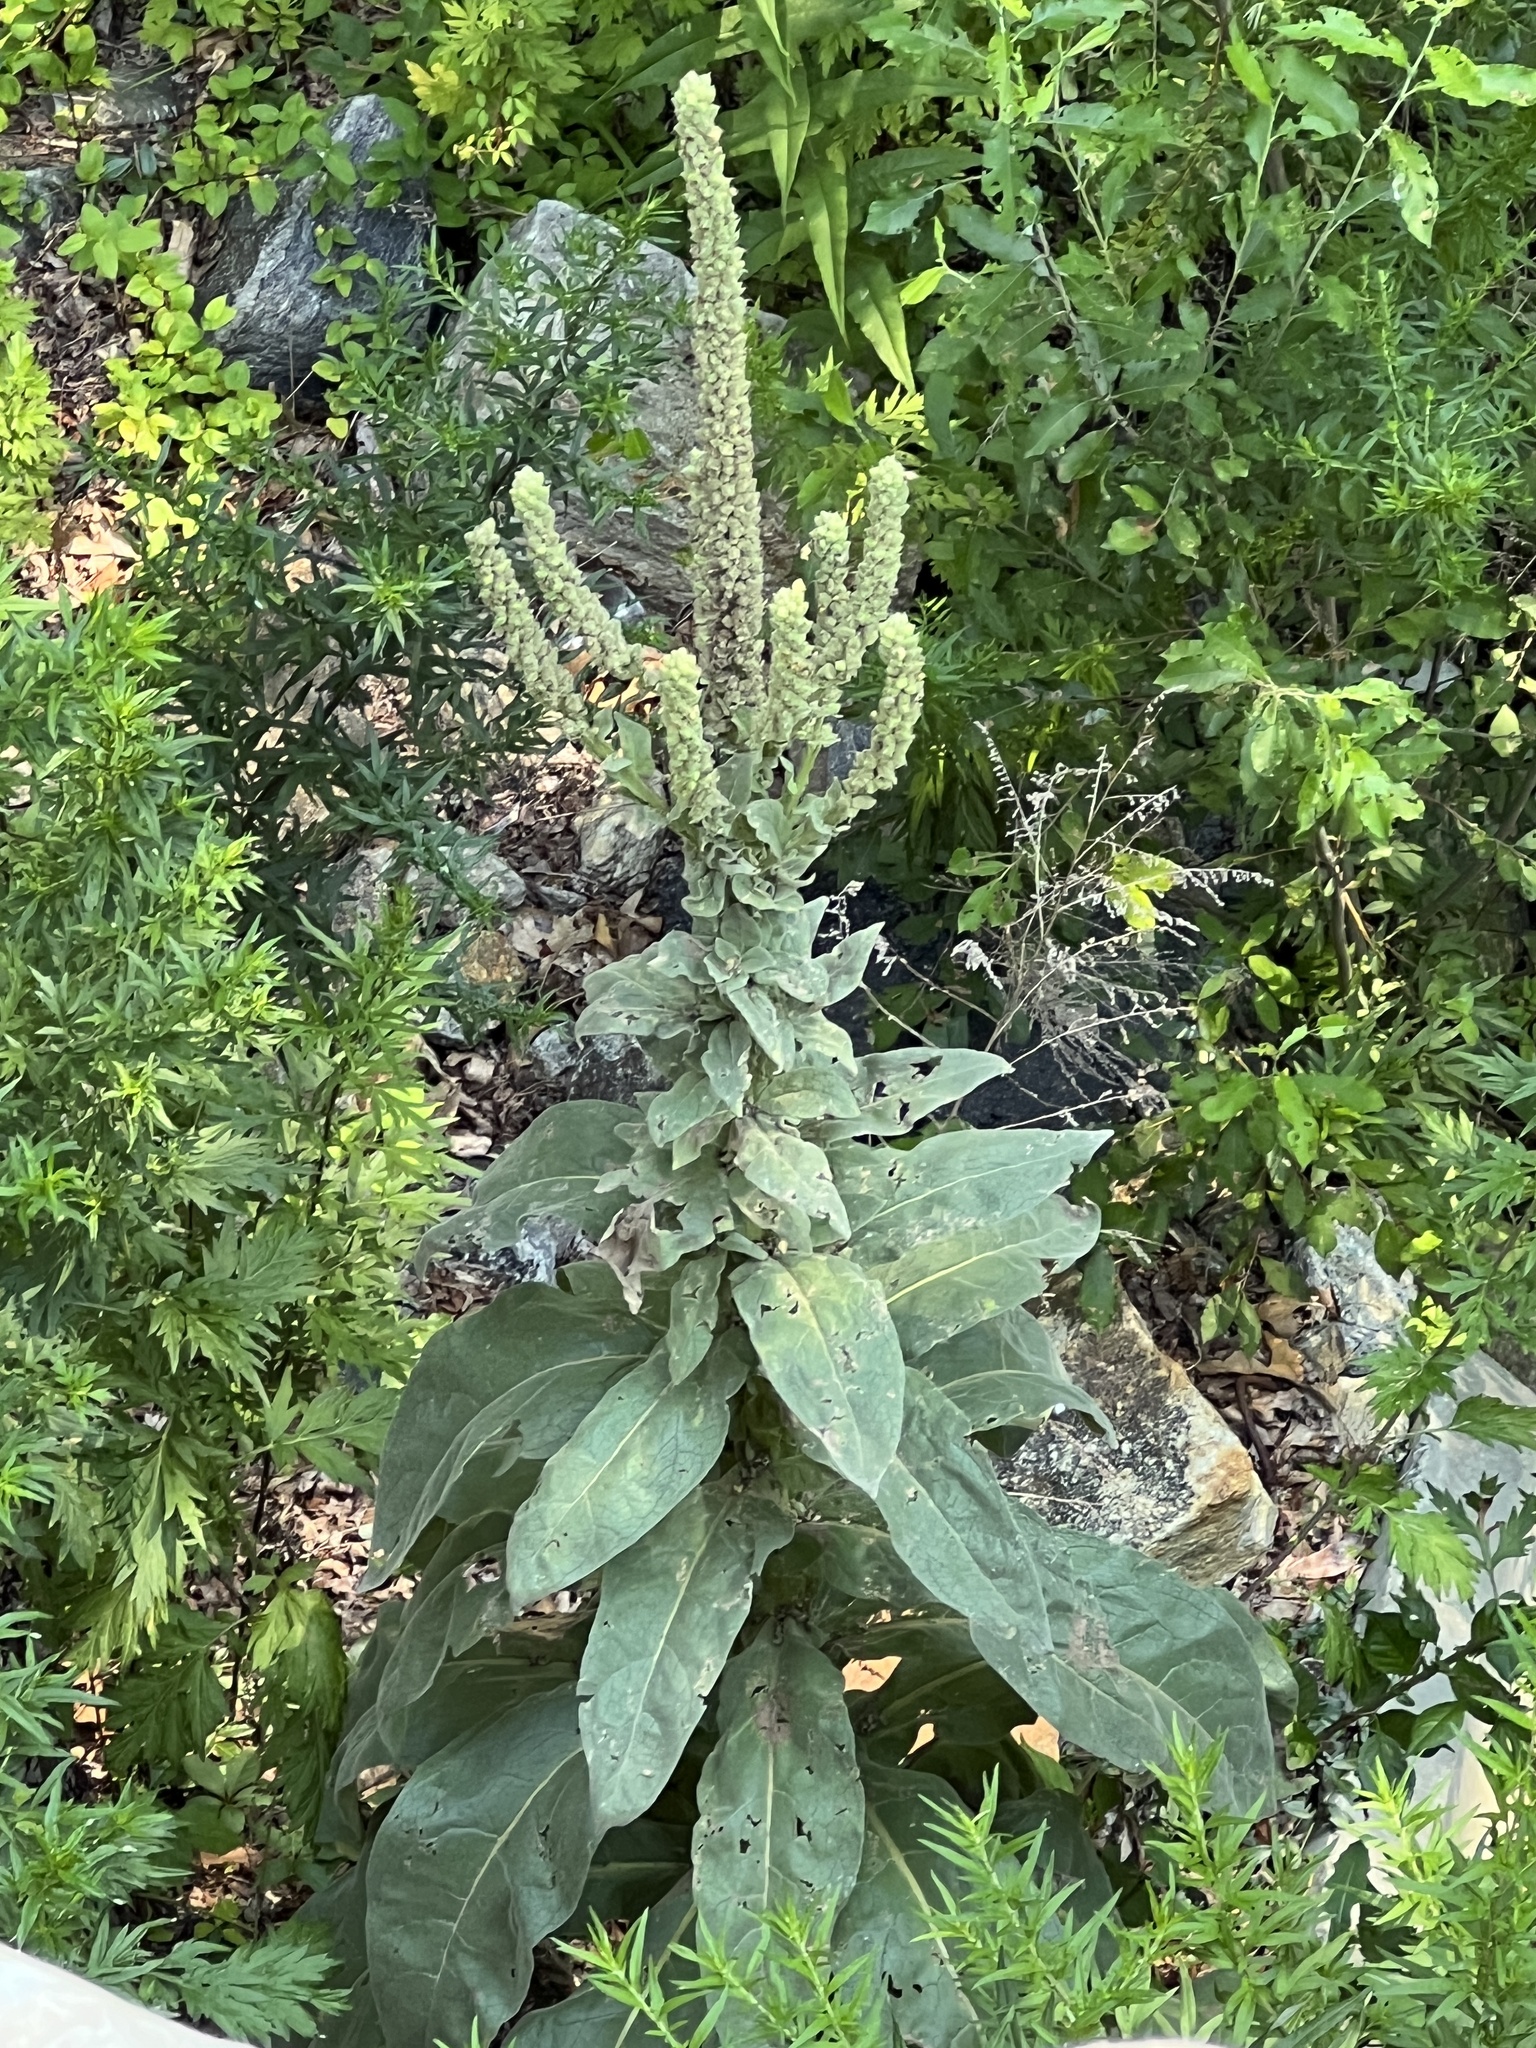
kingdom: Plantae
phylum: Tracheophyta
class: Magnoliopsida
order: Lamiales
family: Scrophulariaceae
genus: Verbascum
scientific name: Verbascum thapsus
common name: Common mullein
